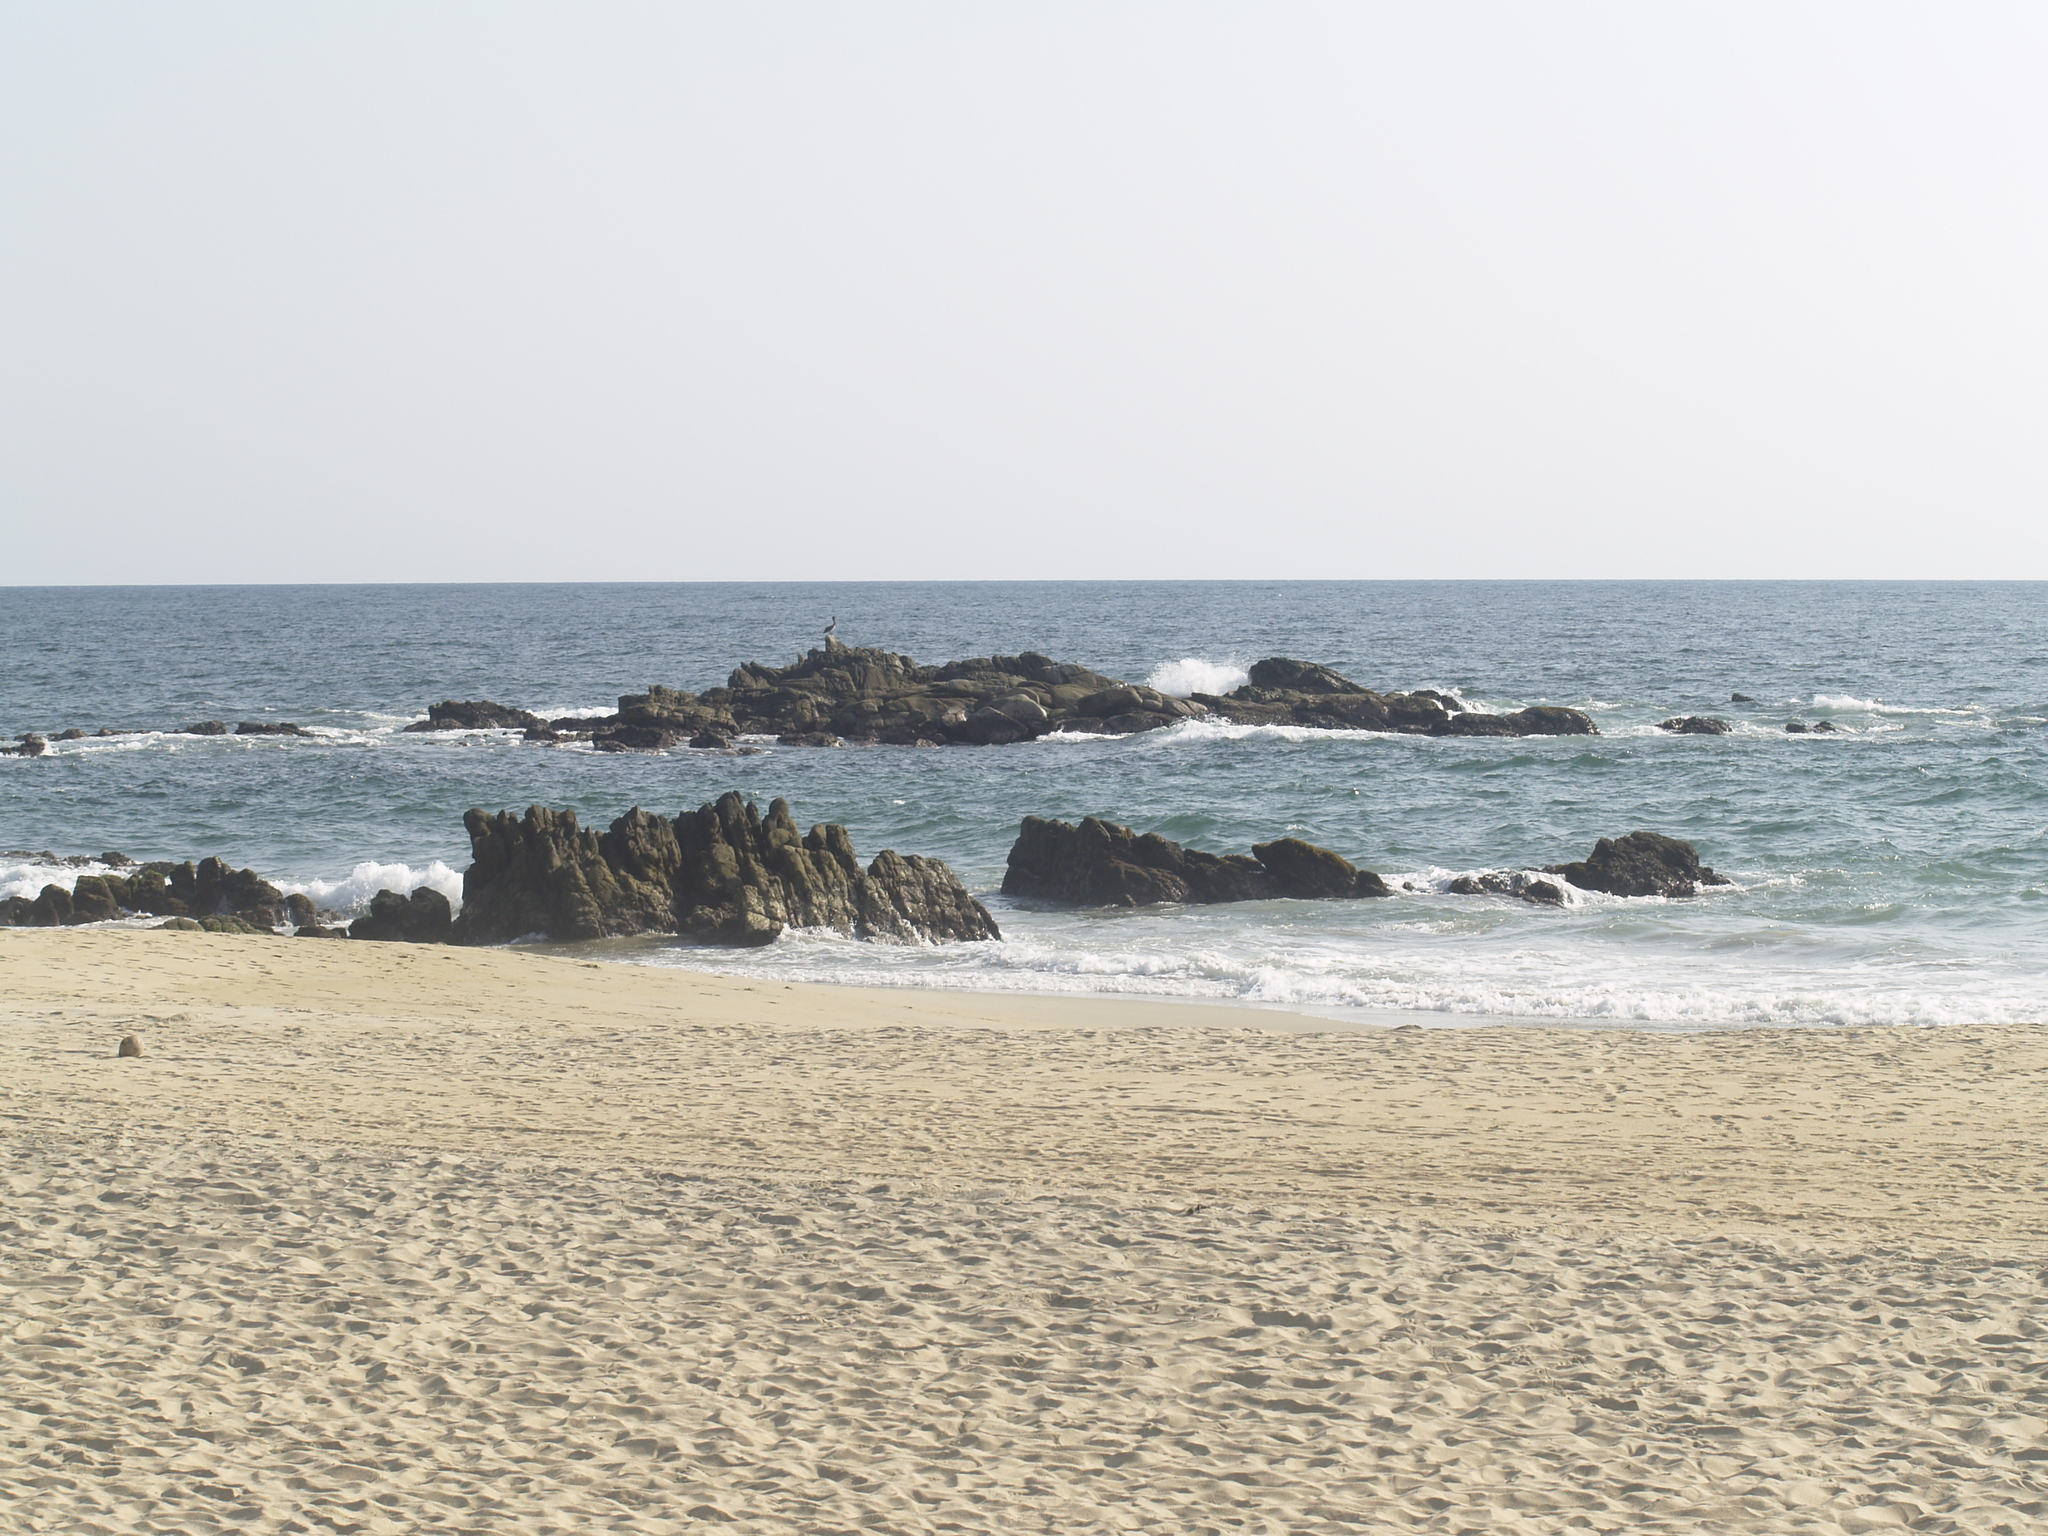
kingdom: Animalia
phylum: Chordata
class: Aves
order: Pelecaniformes
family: Pelecanidae
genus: Pelecanus
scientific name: Pelecanus occidentalis
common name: Brown pelican
